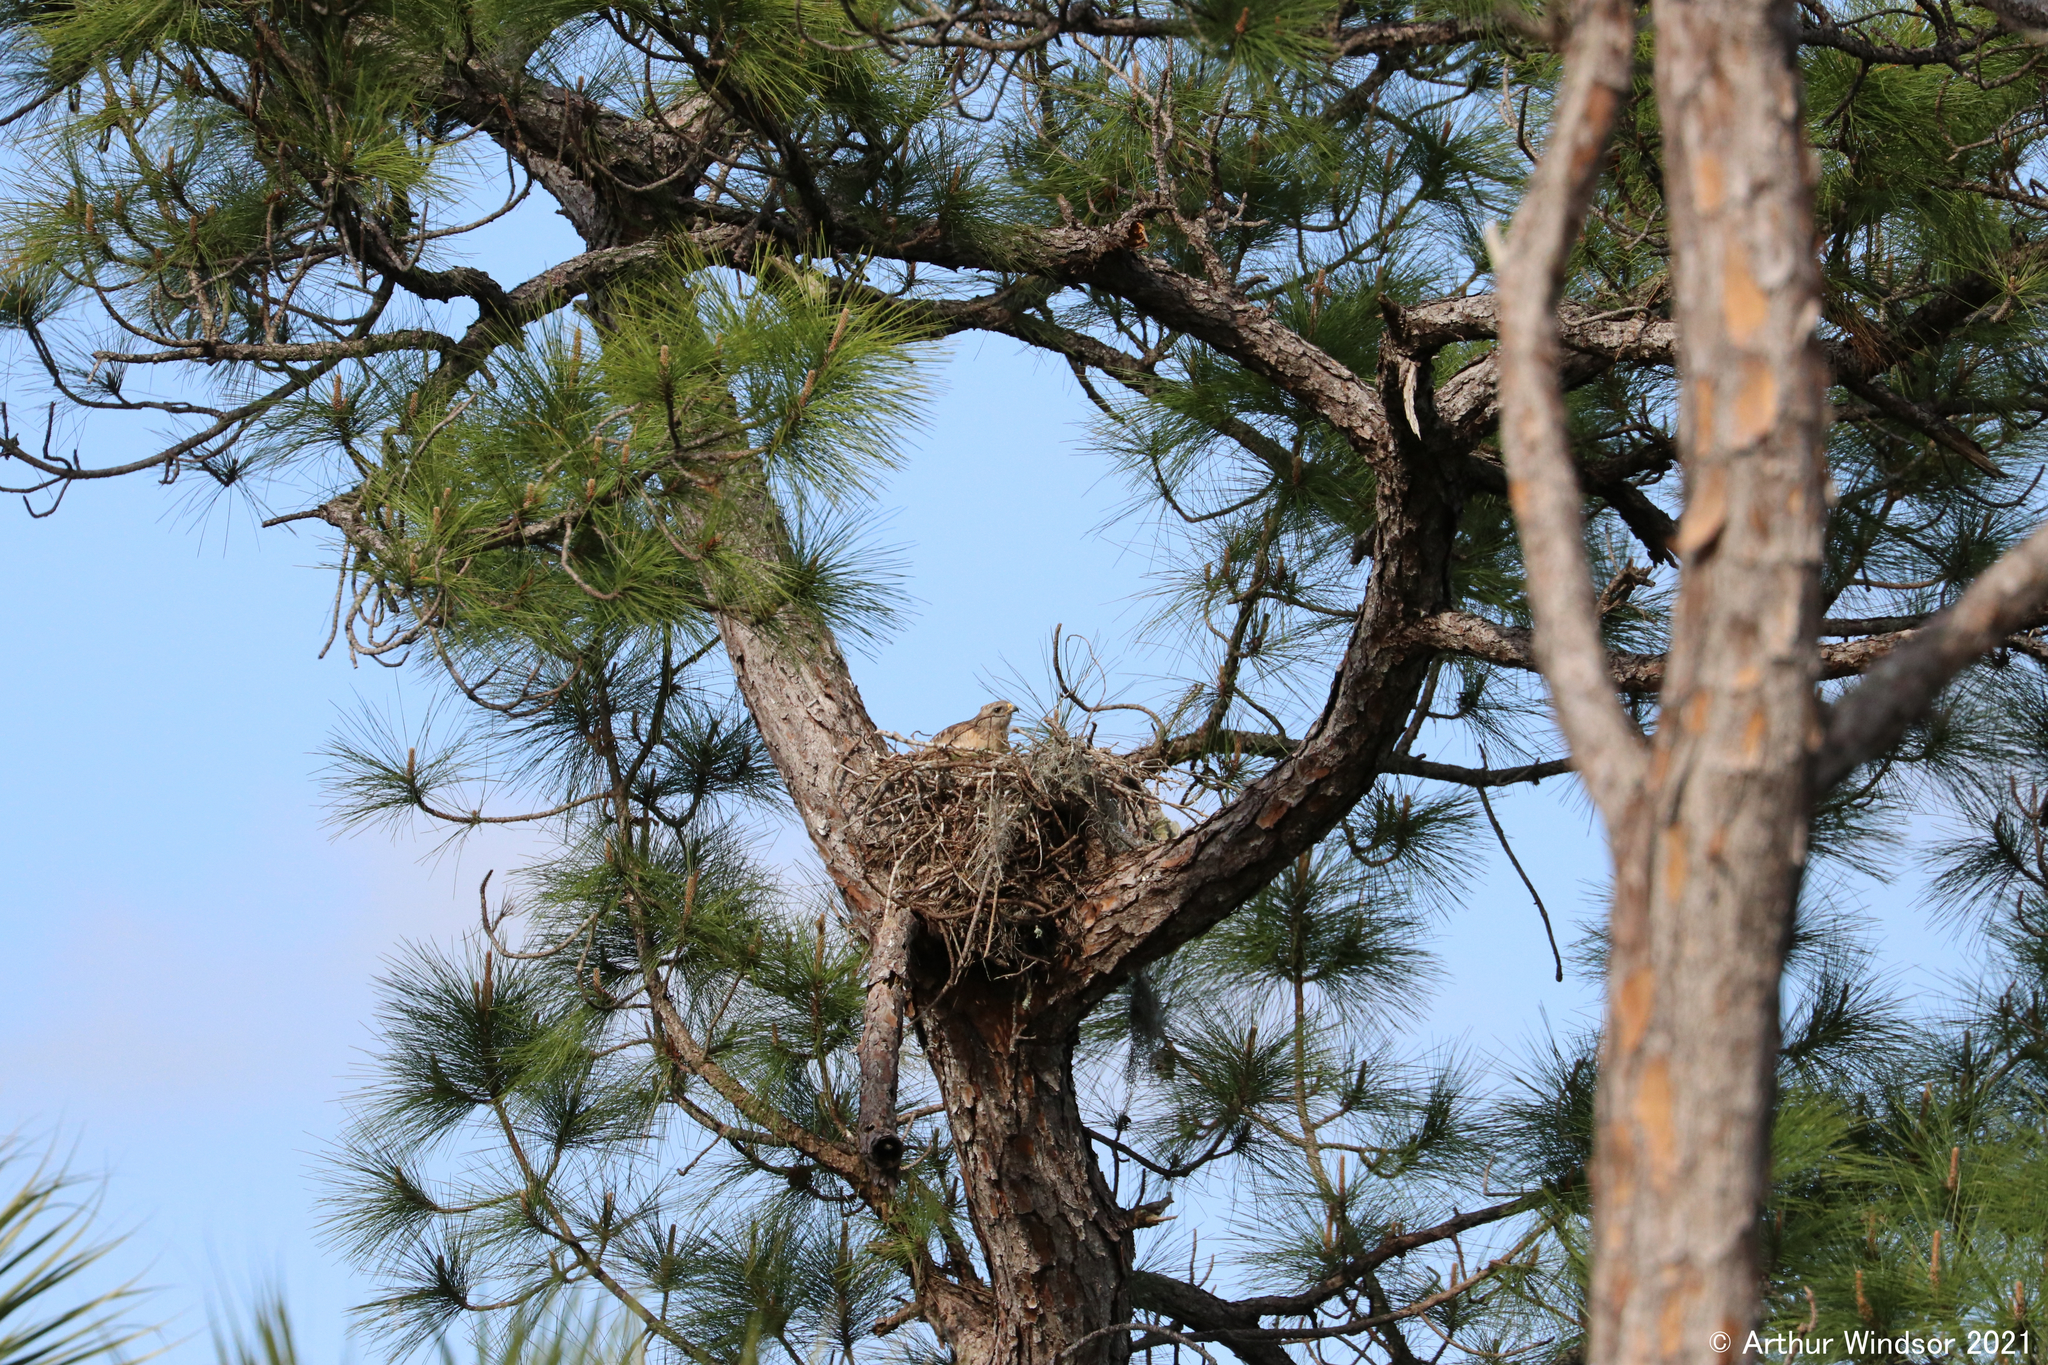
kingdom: Animalia
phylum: Chordata
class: Aves
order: Accipitriformes
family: Accipitridae
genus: Buteo
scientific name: Buteo lineatus
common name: Red-shouldered hawk
